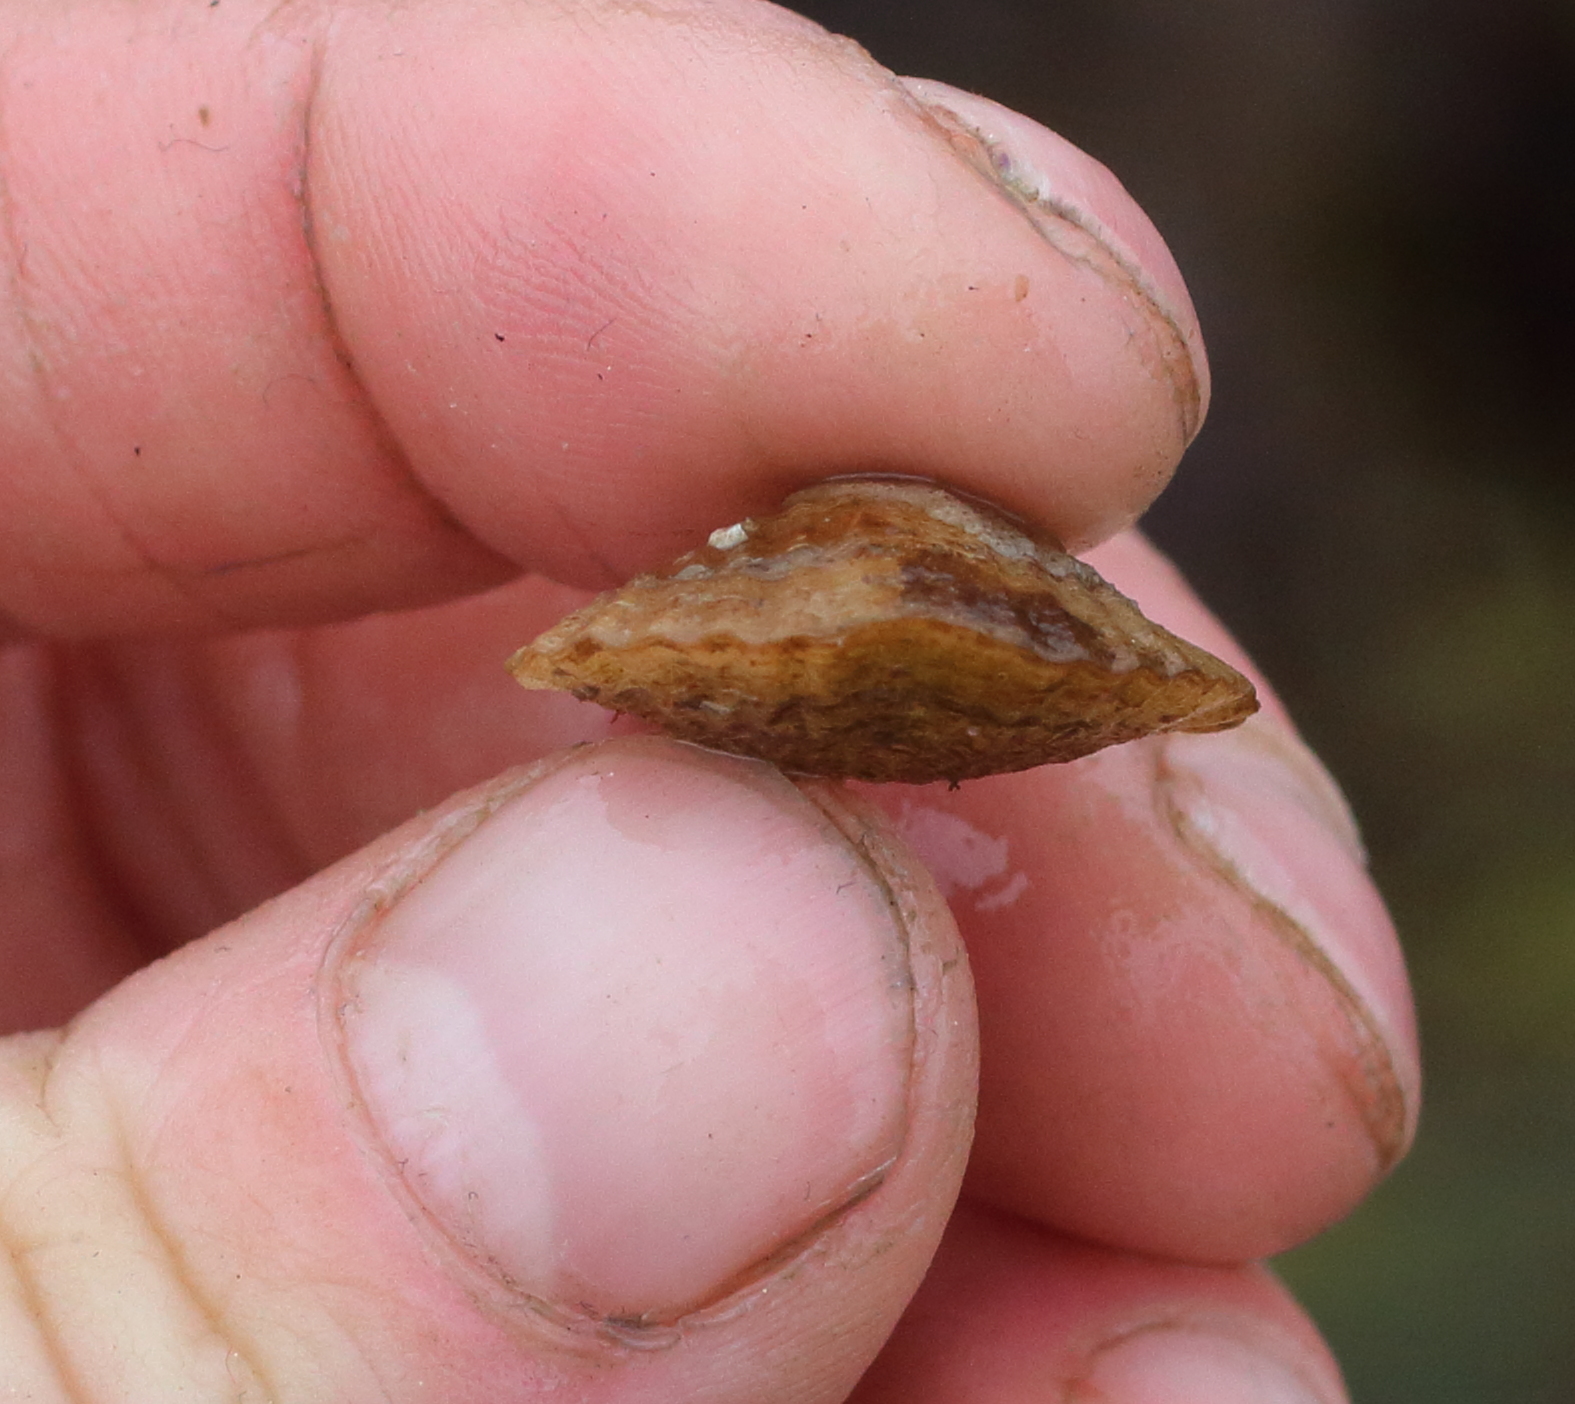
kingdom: Animalia
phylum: Brachiopoda
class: Rhynchonellata
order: Terebratulida
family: Terebrataliidae
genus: Terebratalia
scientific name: Terebratalia transversa
